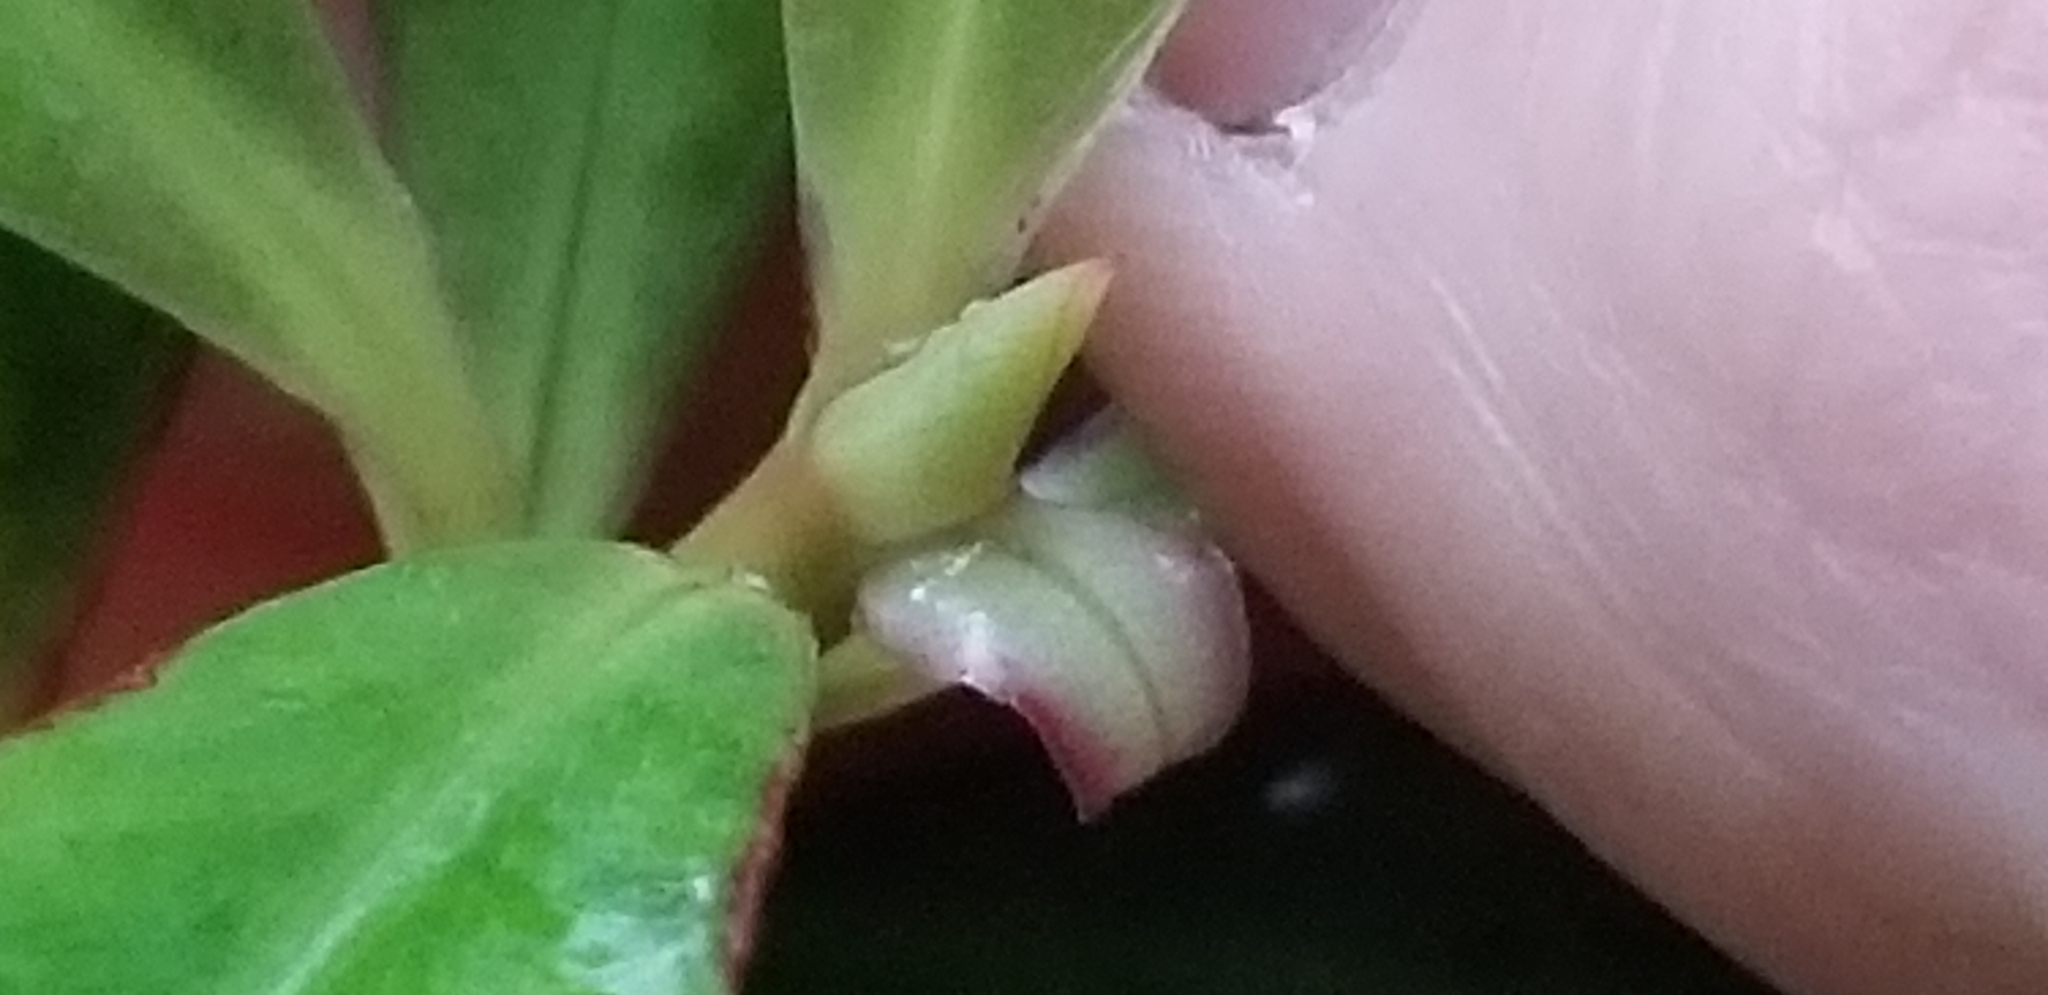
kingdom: Plantae
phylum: Tracheophyta
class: Magnoliopsida
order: Ericales
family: Primulaceae
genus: Myrsine
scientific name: Myrsine salicina
